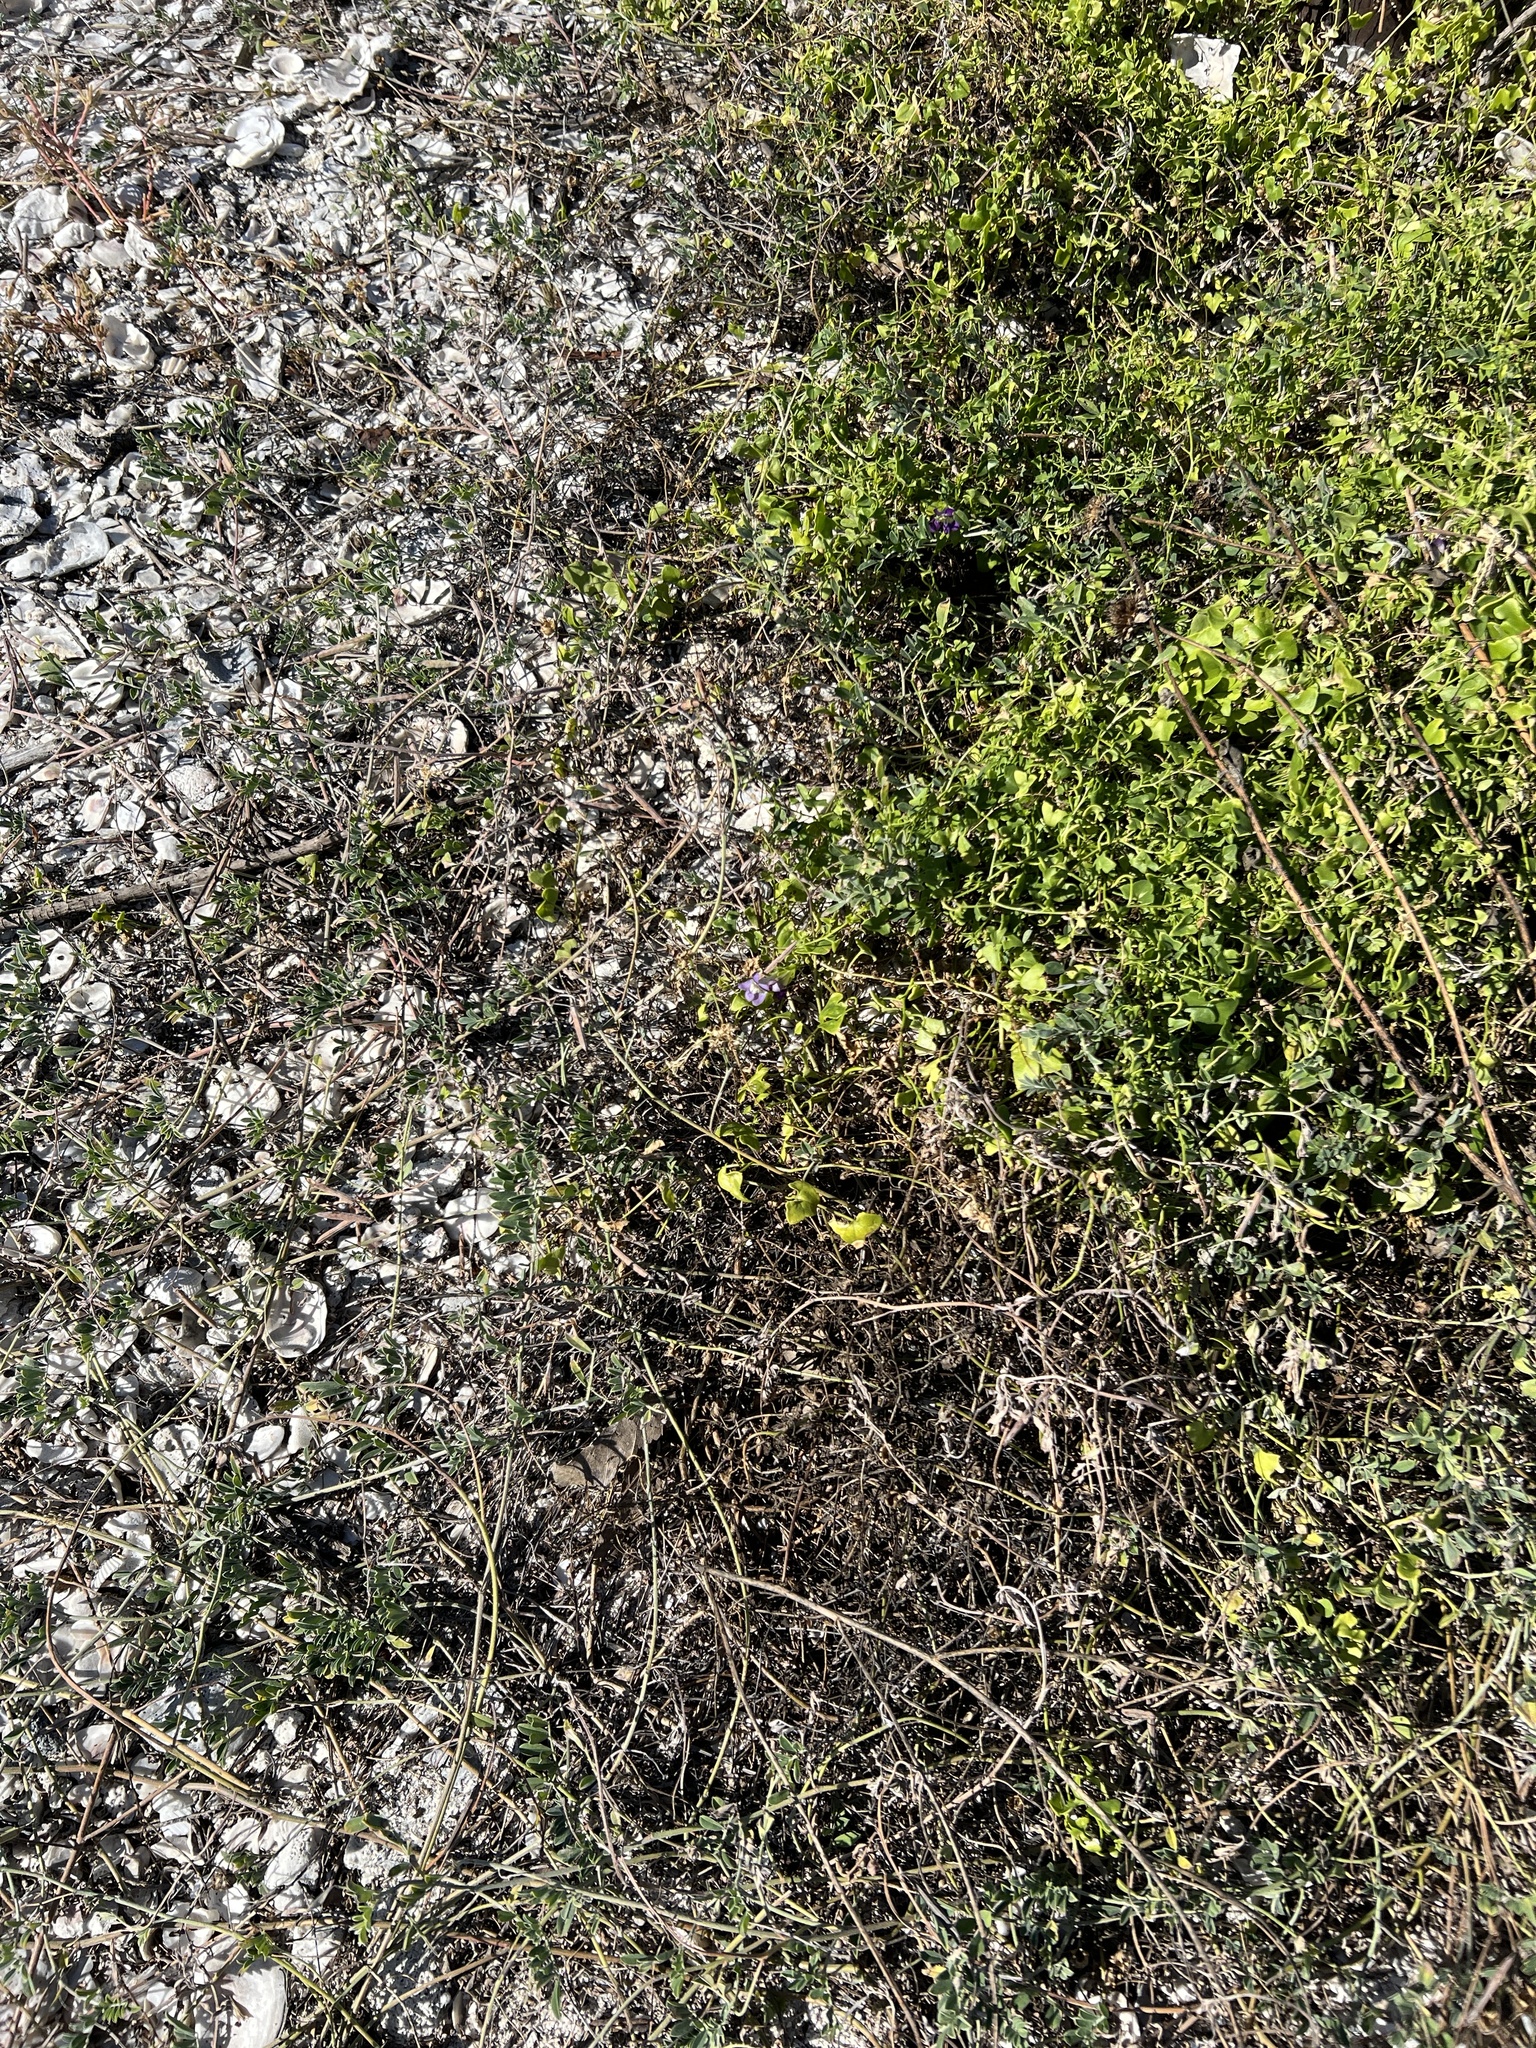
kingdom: Plantae
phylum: Tracheophyta
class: Magnoliopsida
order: Lamiales
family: Plantaginaceae
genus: Maurandella
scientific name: Maurandella antirrhiniflora
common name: Violet twining-snapdragon
